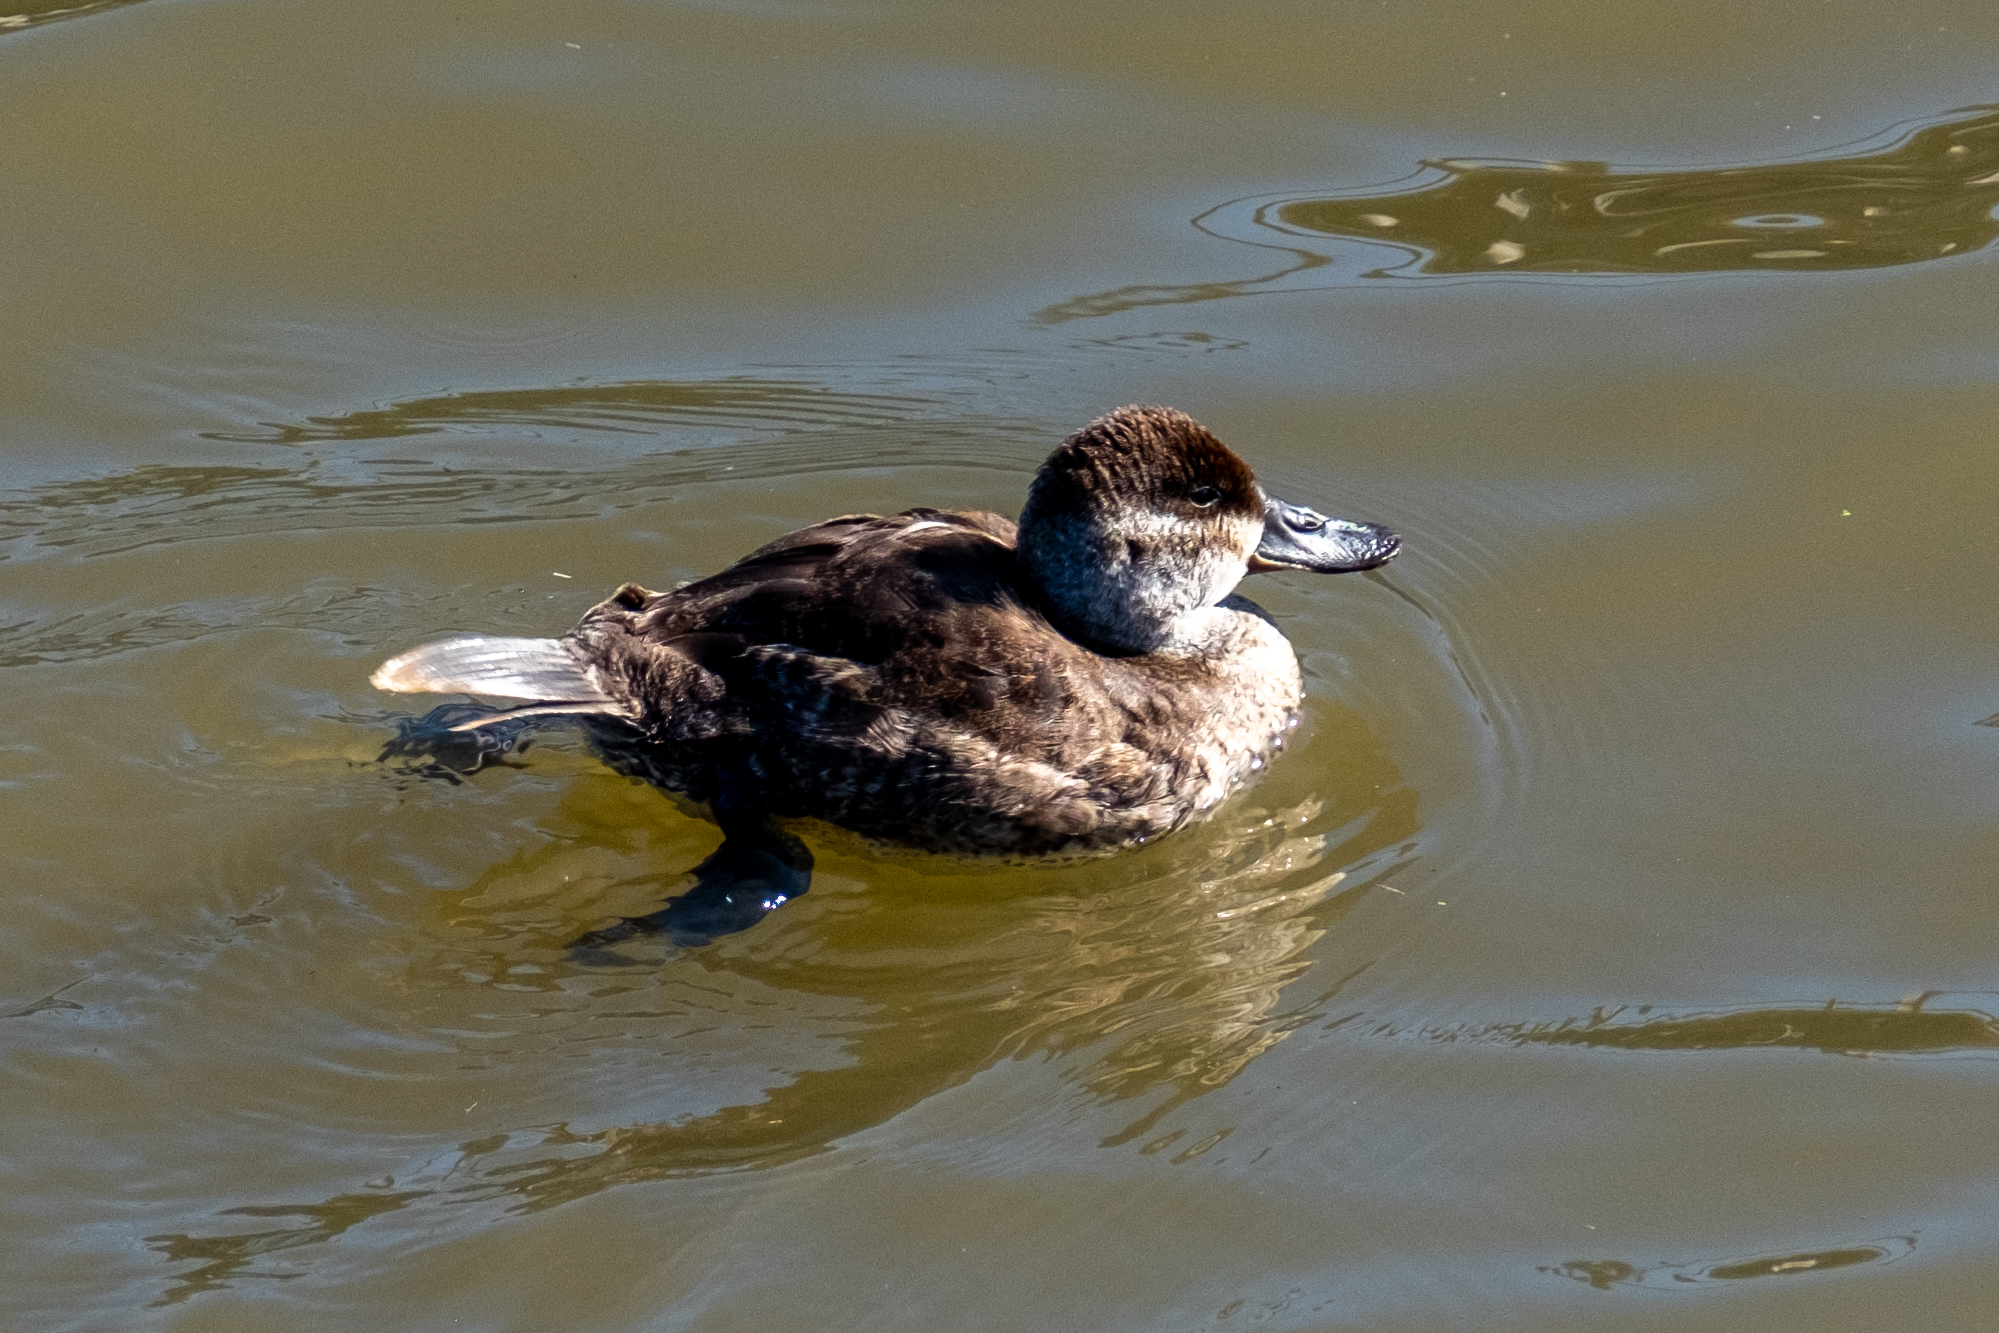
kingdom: Animalia
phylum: Chordata
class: Aves
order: Anseriformes
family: Anatidae
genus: Oxyura
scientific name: Oxyura jamaicensis
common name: Ruddy duck
